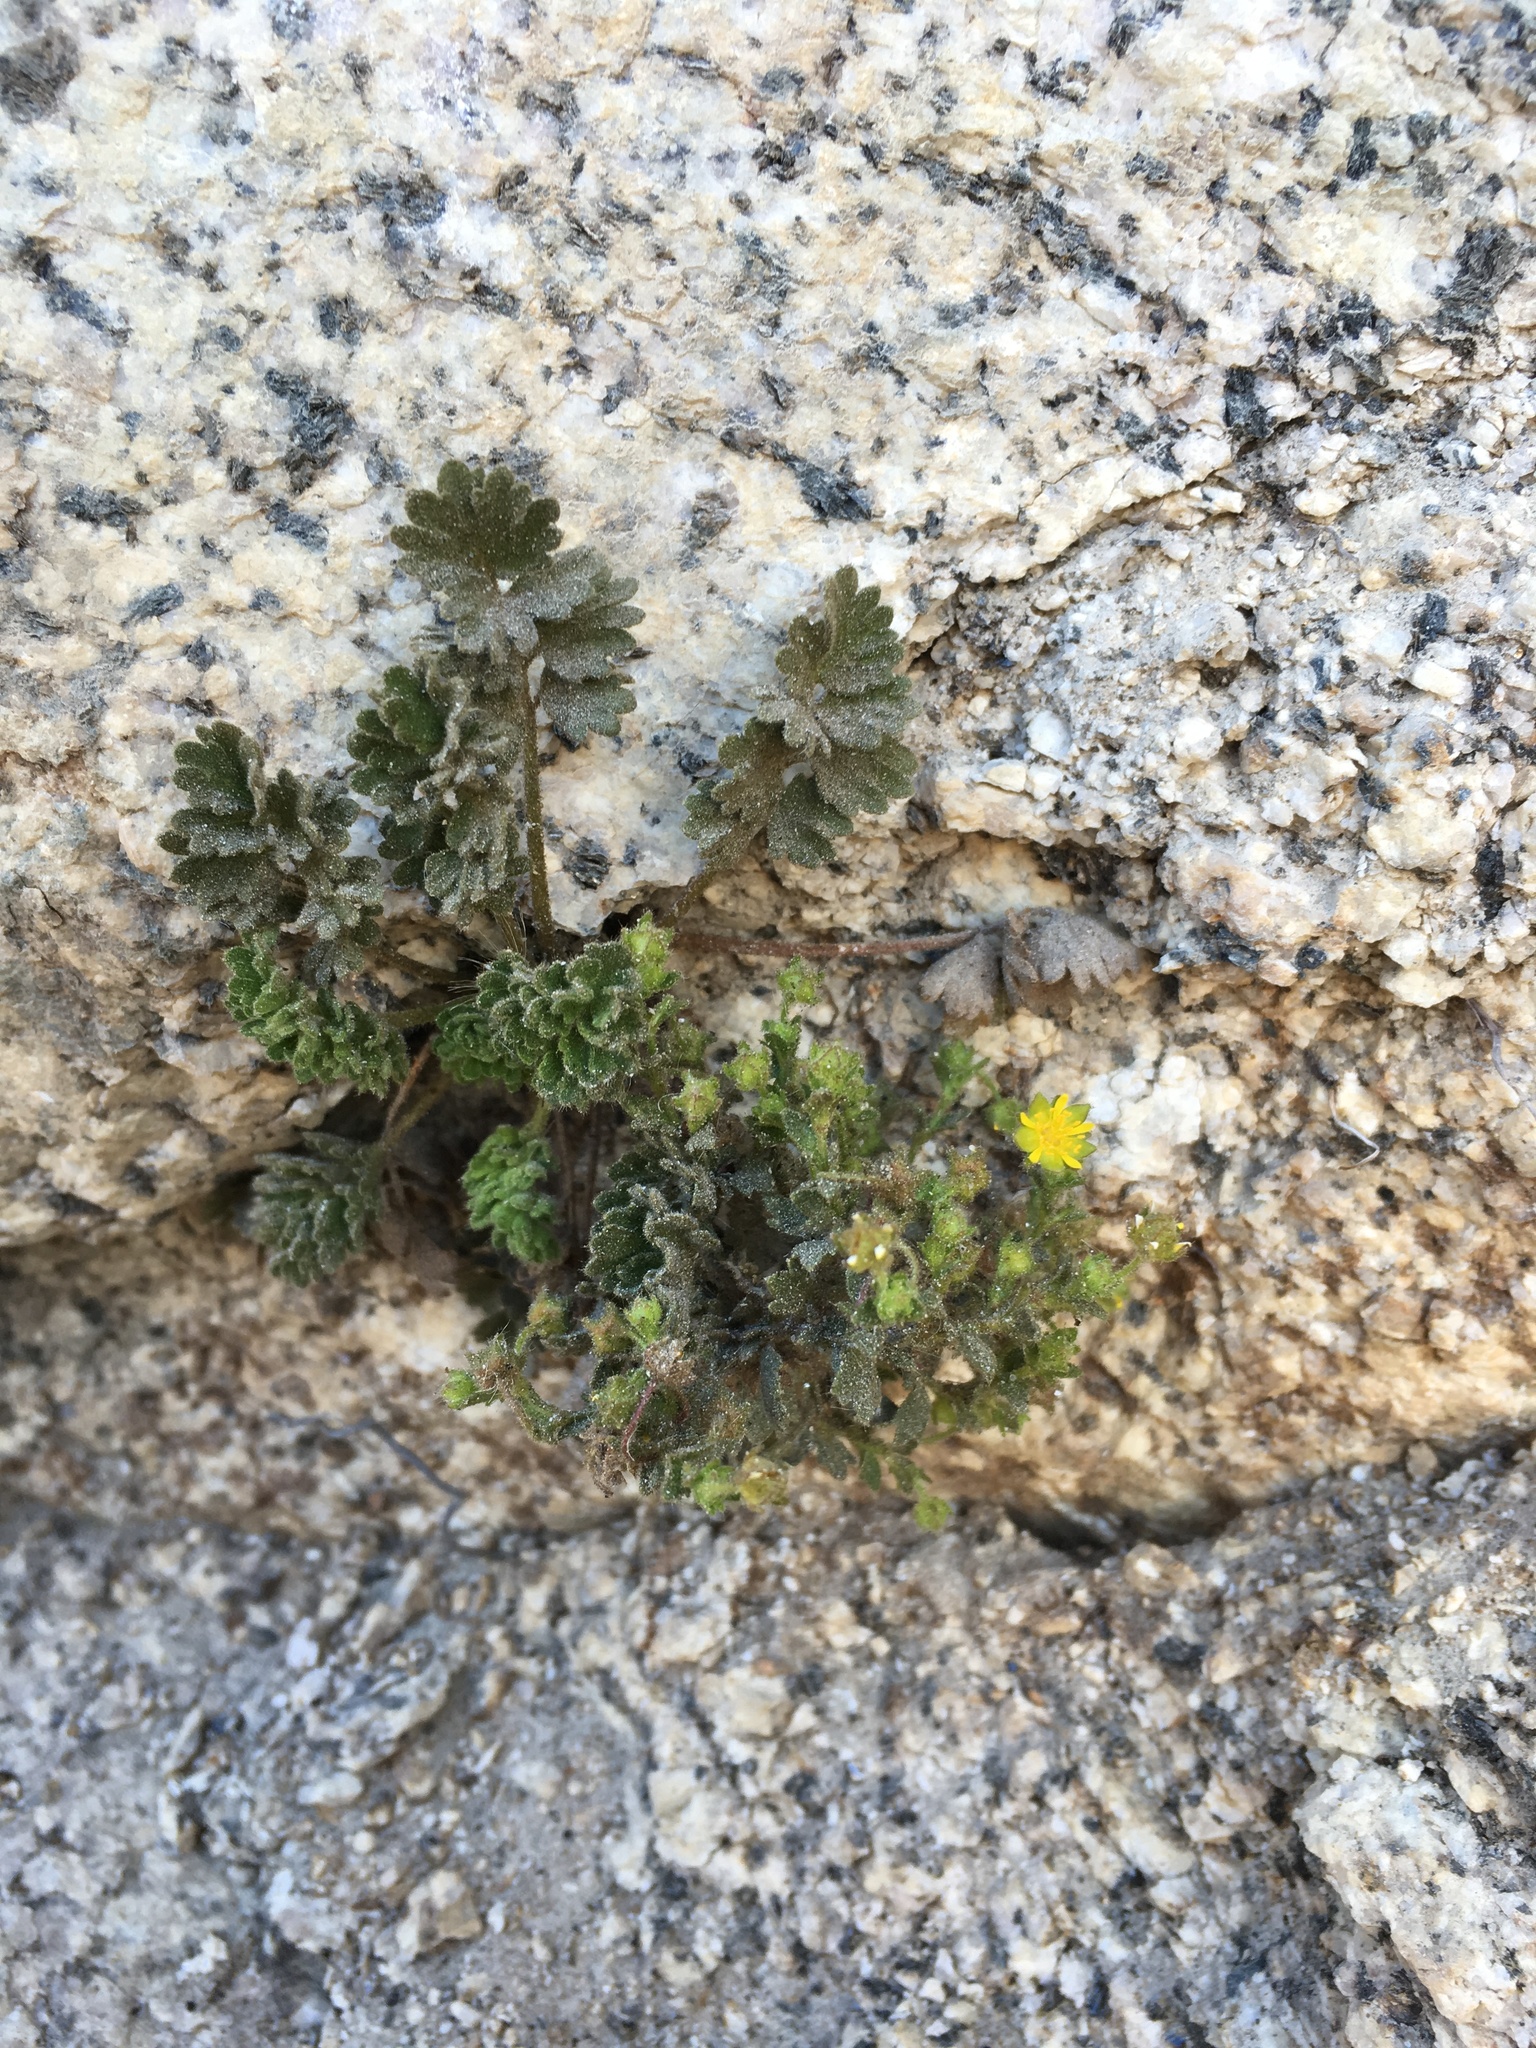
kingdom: Plantae
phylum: Tracheophyta
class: Magnoliopsida
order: Rosales
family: Rosaceae
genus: Potentilla
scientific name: Potentilla saxosa
